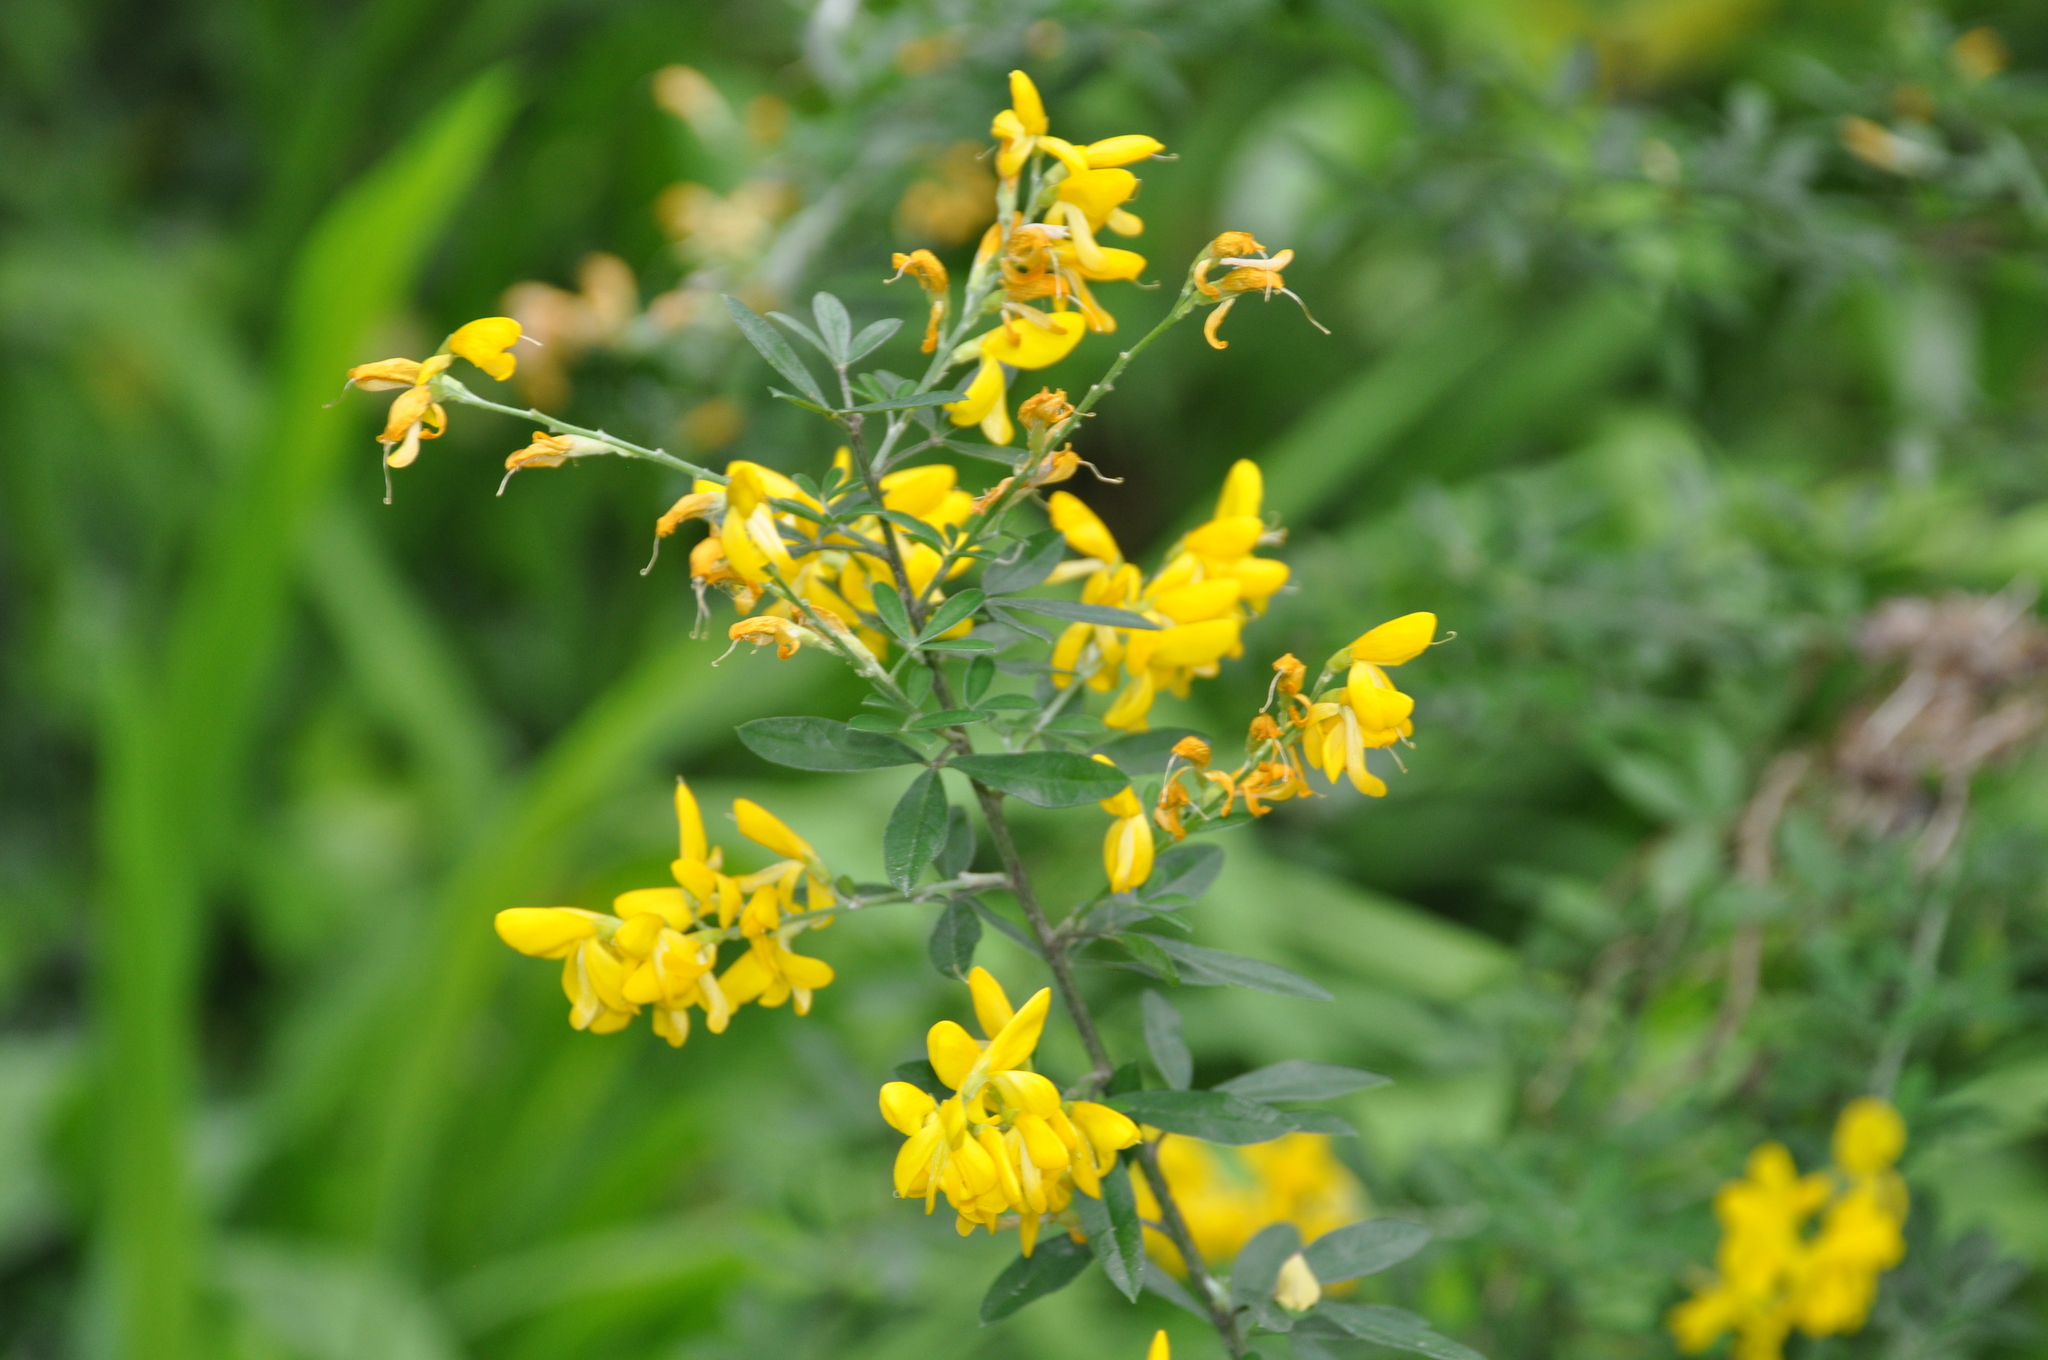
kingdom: Plantae
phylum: Tracheophyta
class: Magnoliopsida
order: Fabales
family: Fabaceae
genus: Genista
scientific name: Genista stenopetala
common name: Leafy broom
